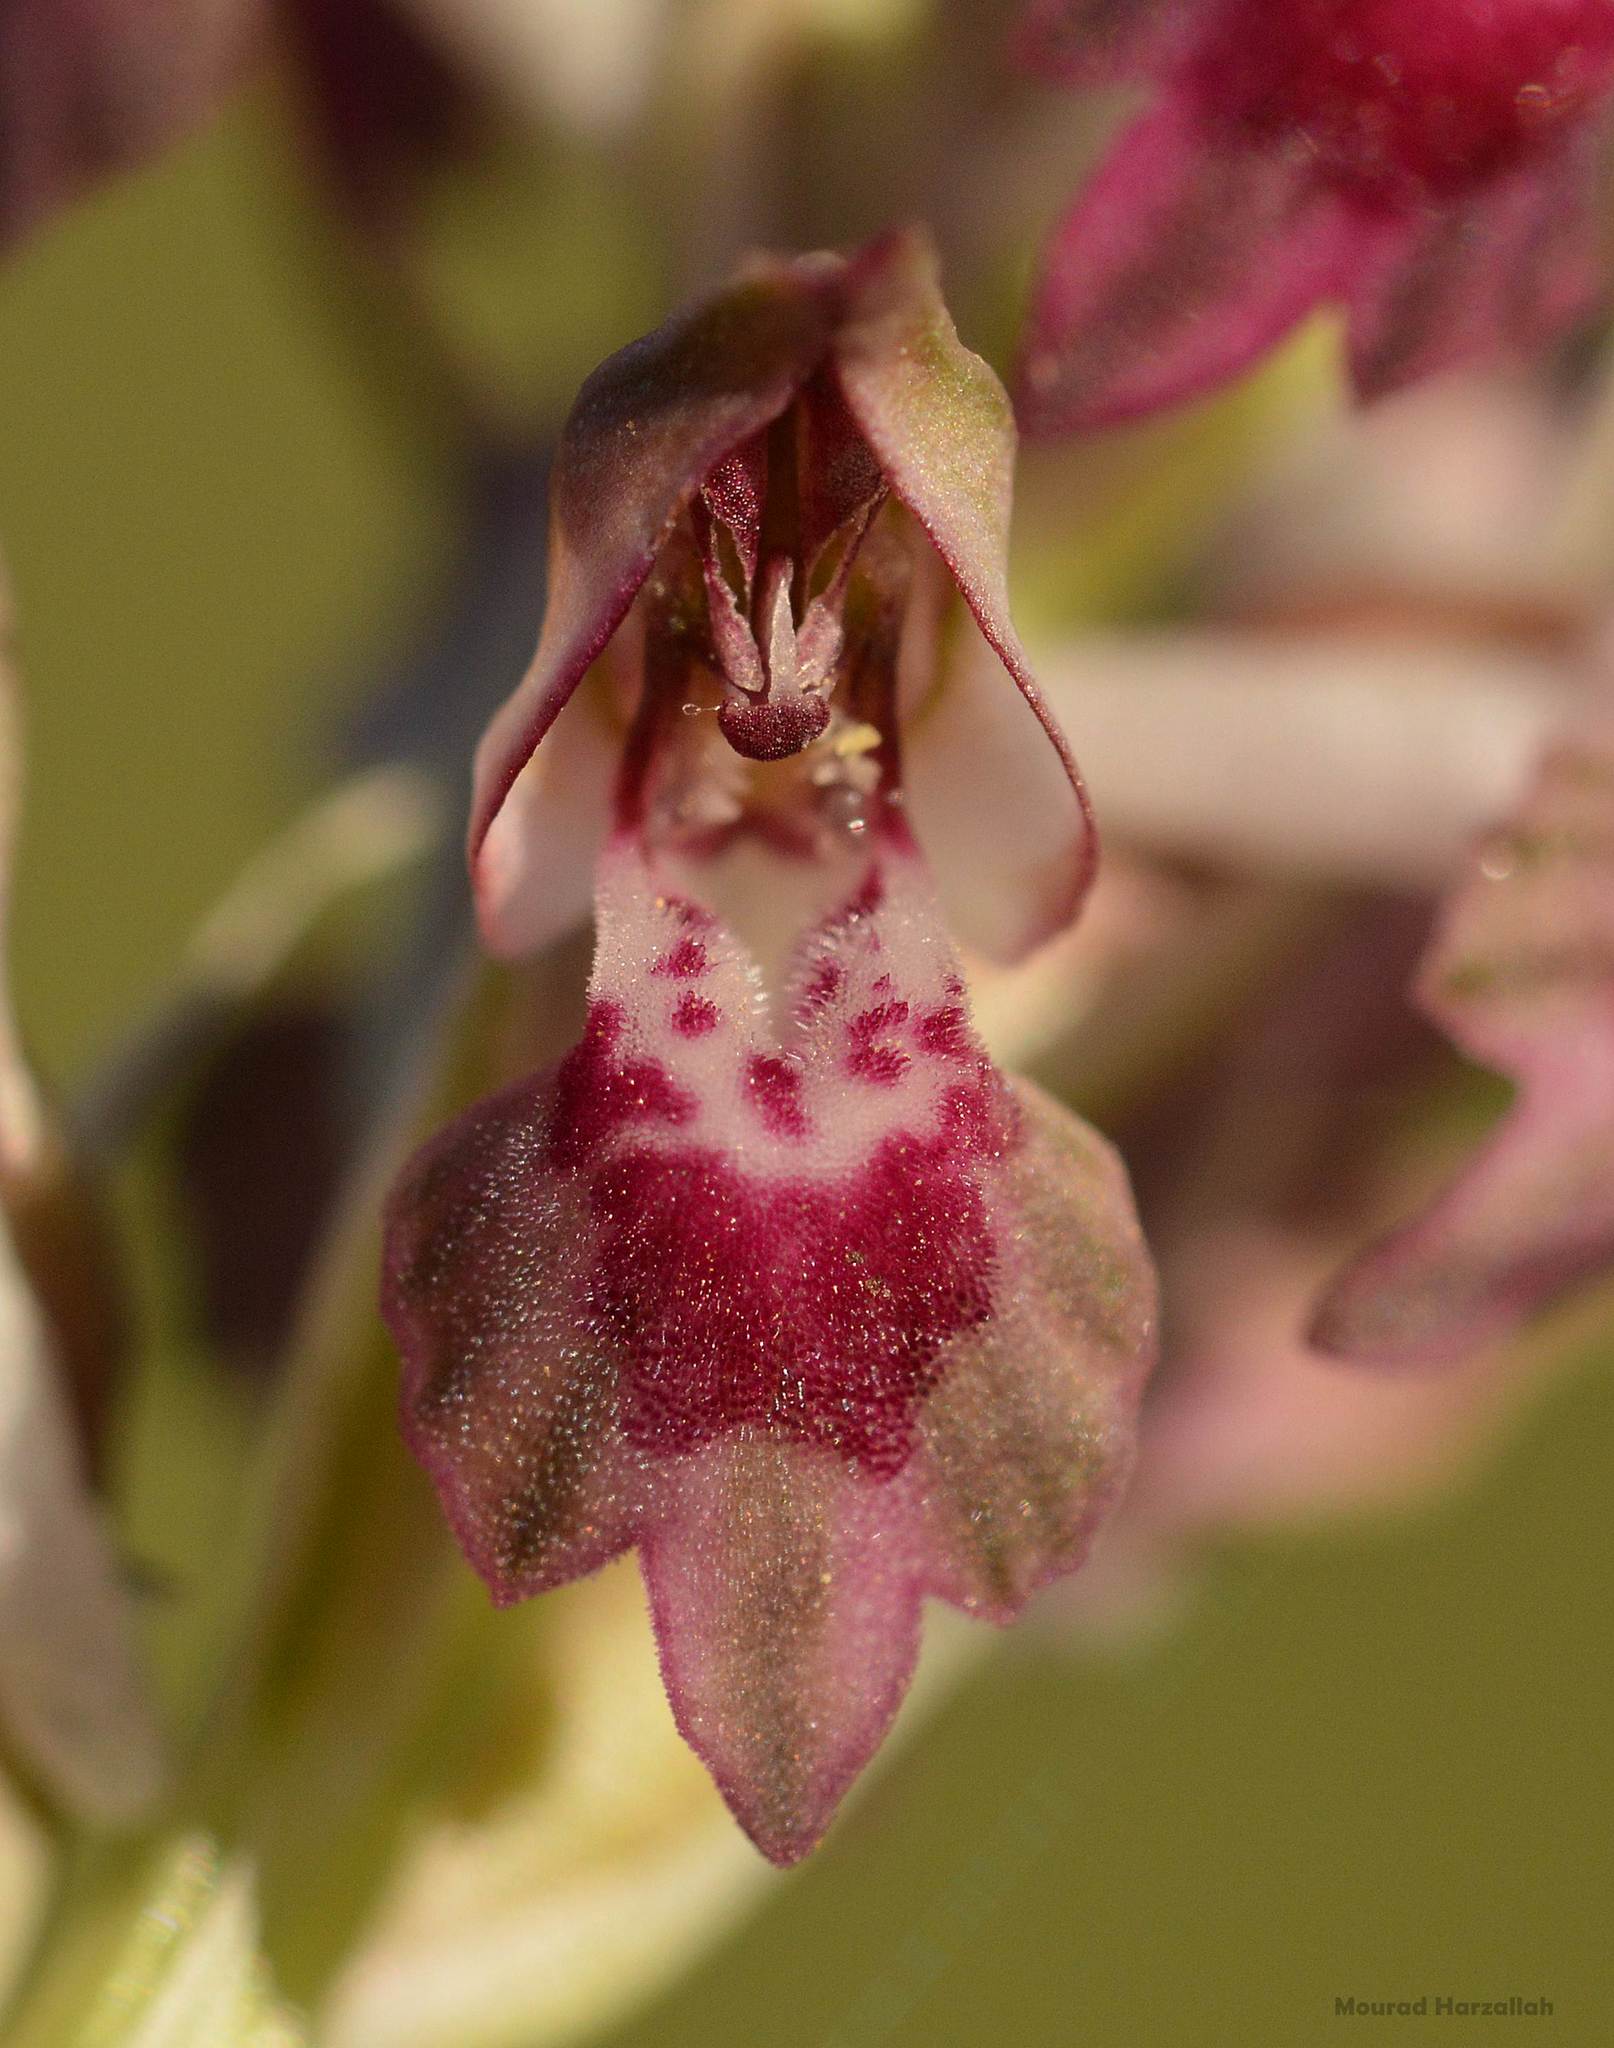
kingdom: Plantae
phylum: Tracheophyta
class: Liliopsida
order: Asparagales
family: Orchidaceae
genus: Anacamptis
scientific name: Anacamptis coriophora
